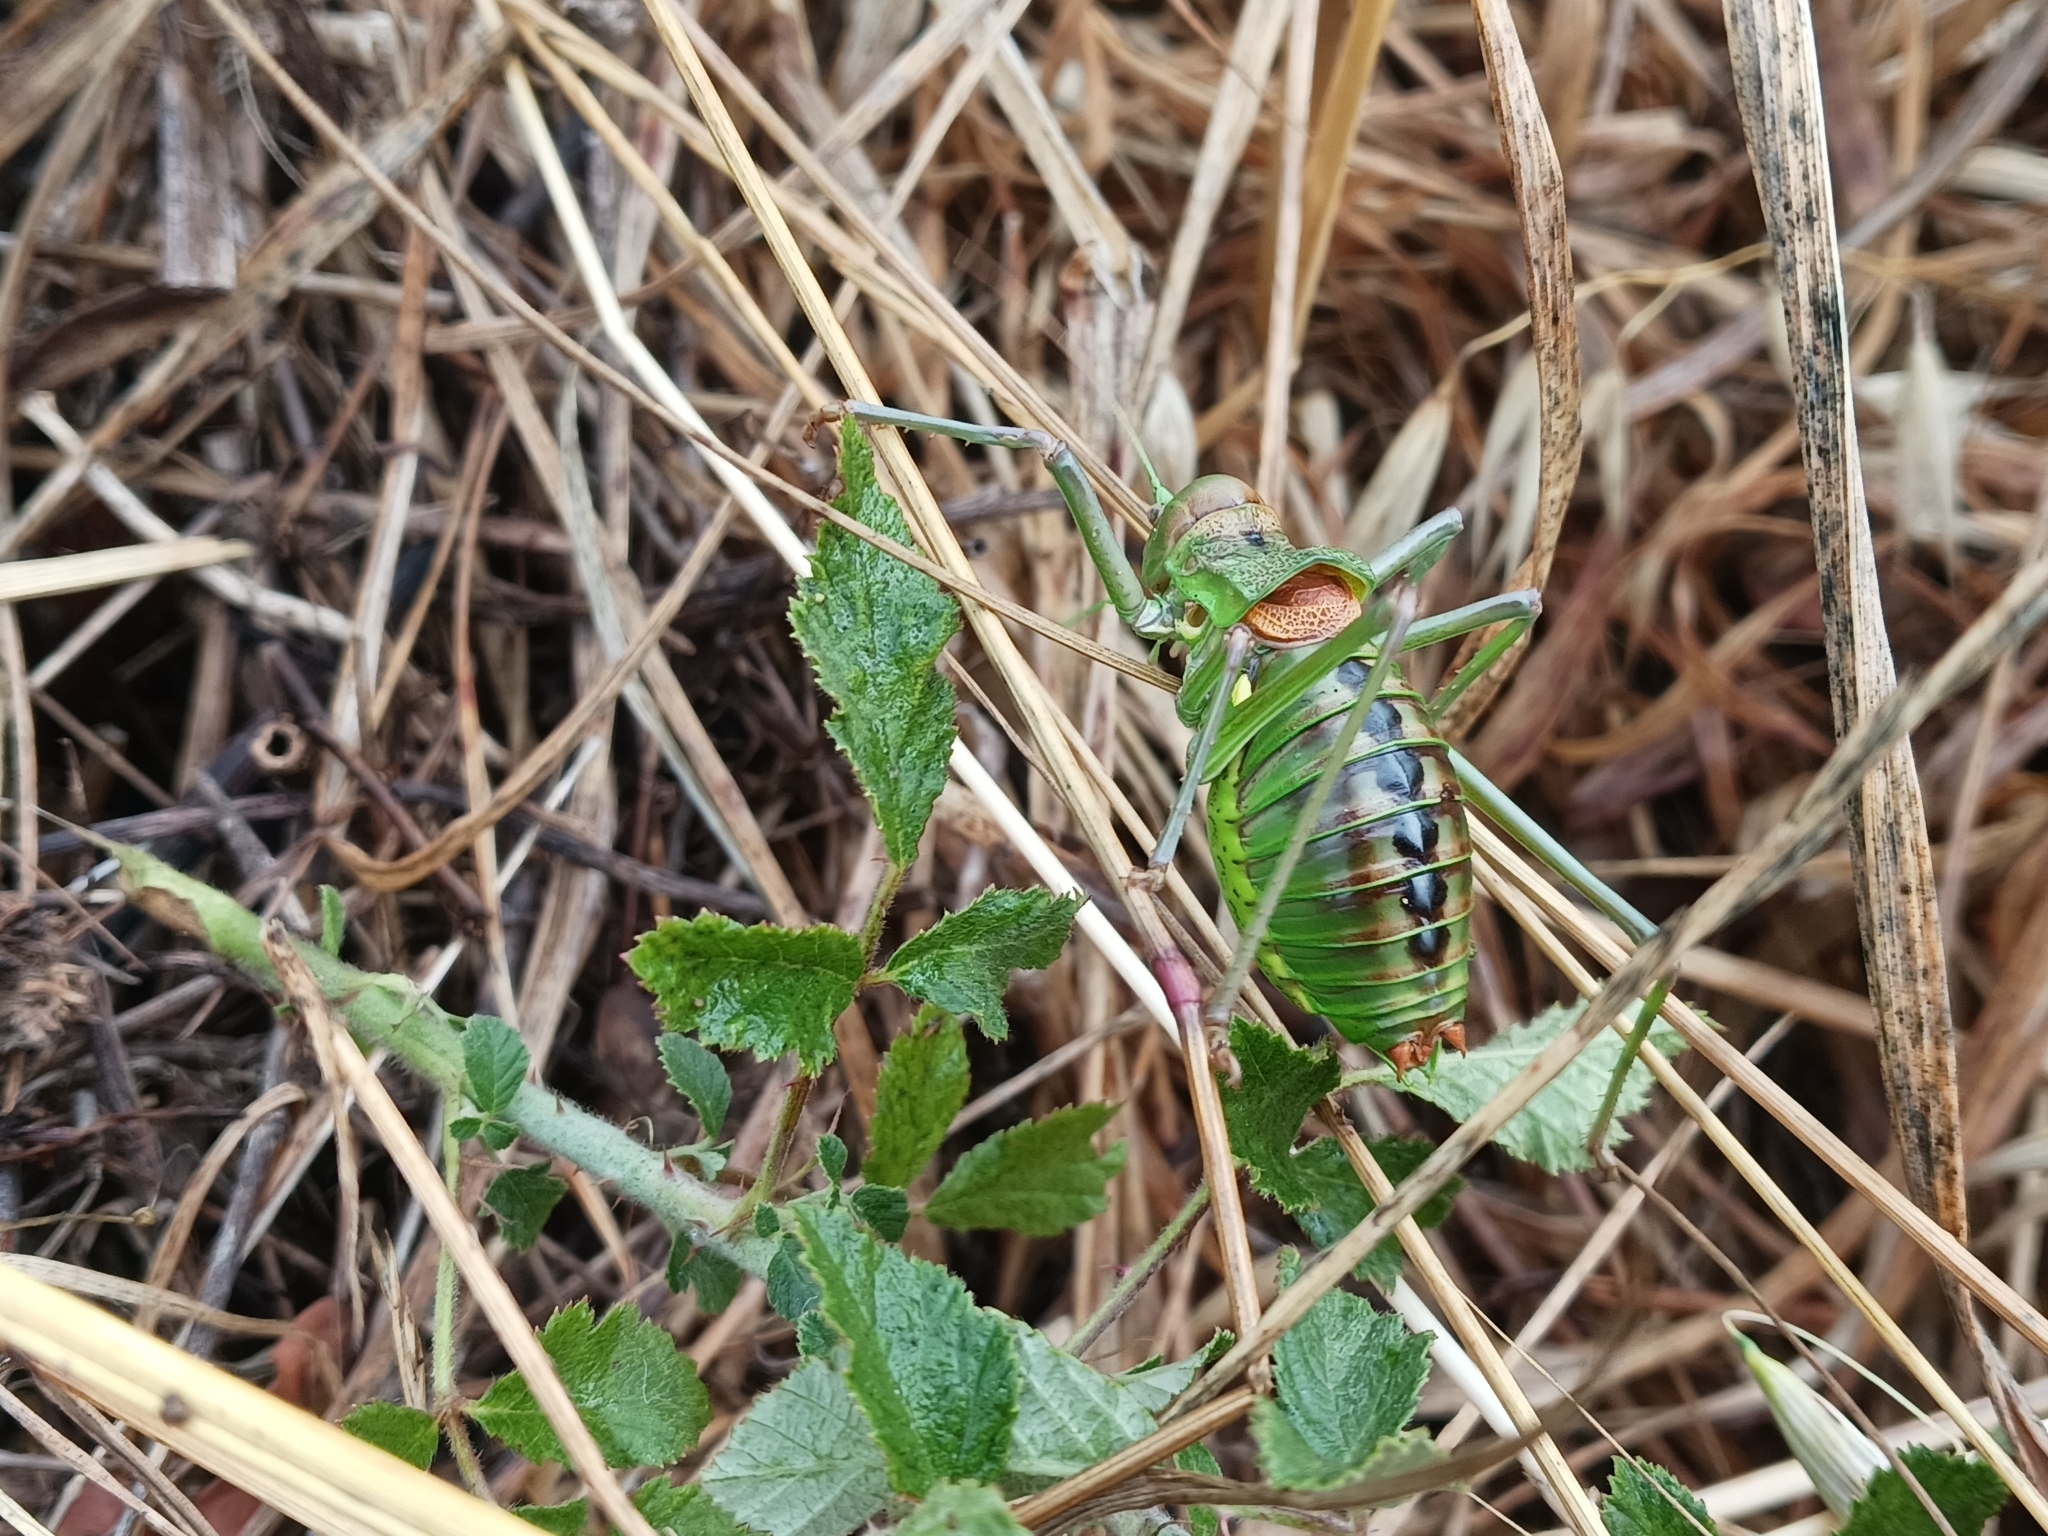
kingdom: Animalia
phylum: Arthropoda
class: Insecta
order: Orthoptera
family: Tettigoniidae
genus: Neocallicrania
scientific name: Neocallicrania lusitanica
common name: Coruche saddle bush-cricket
